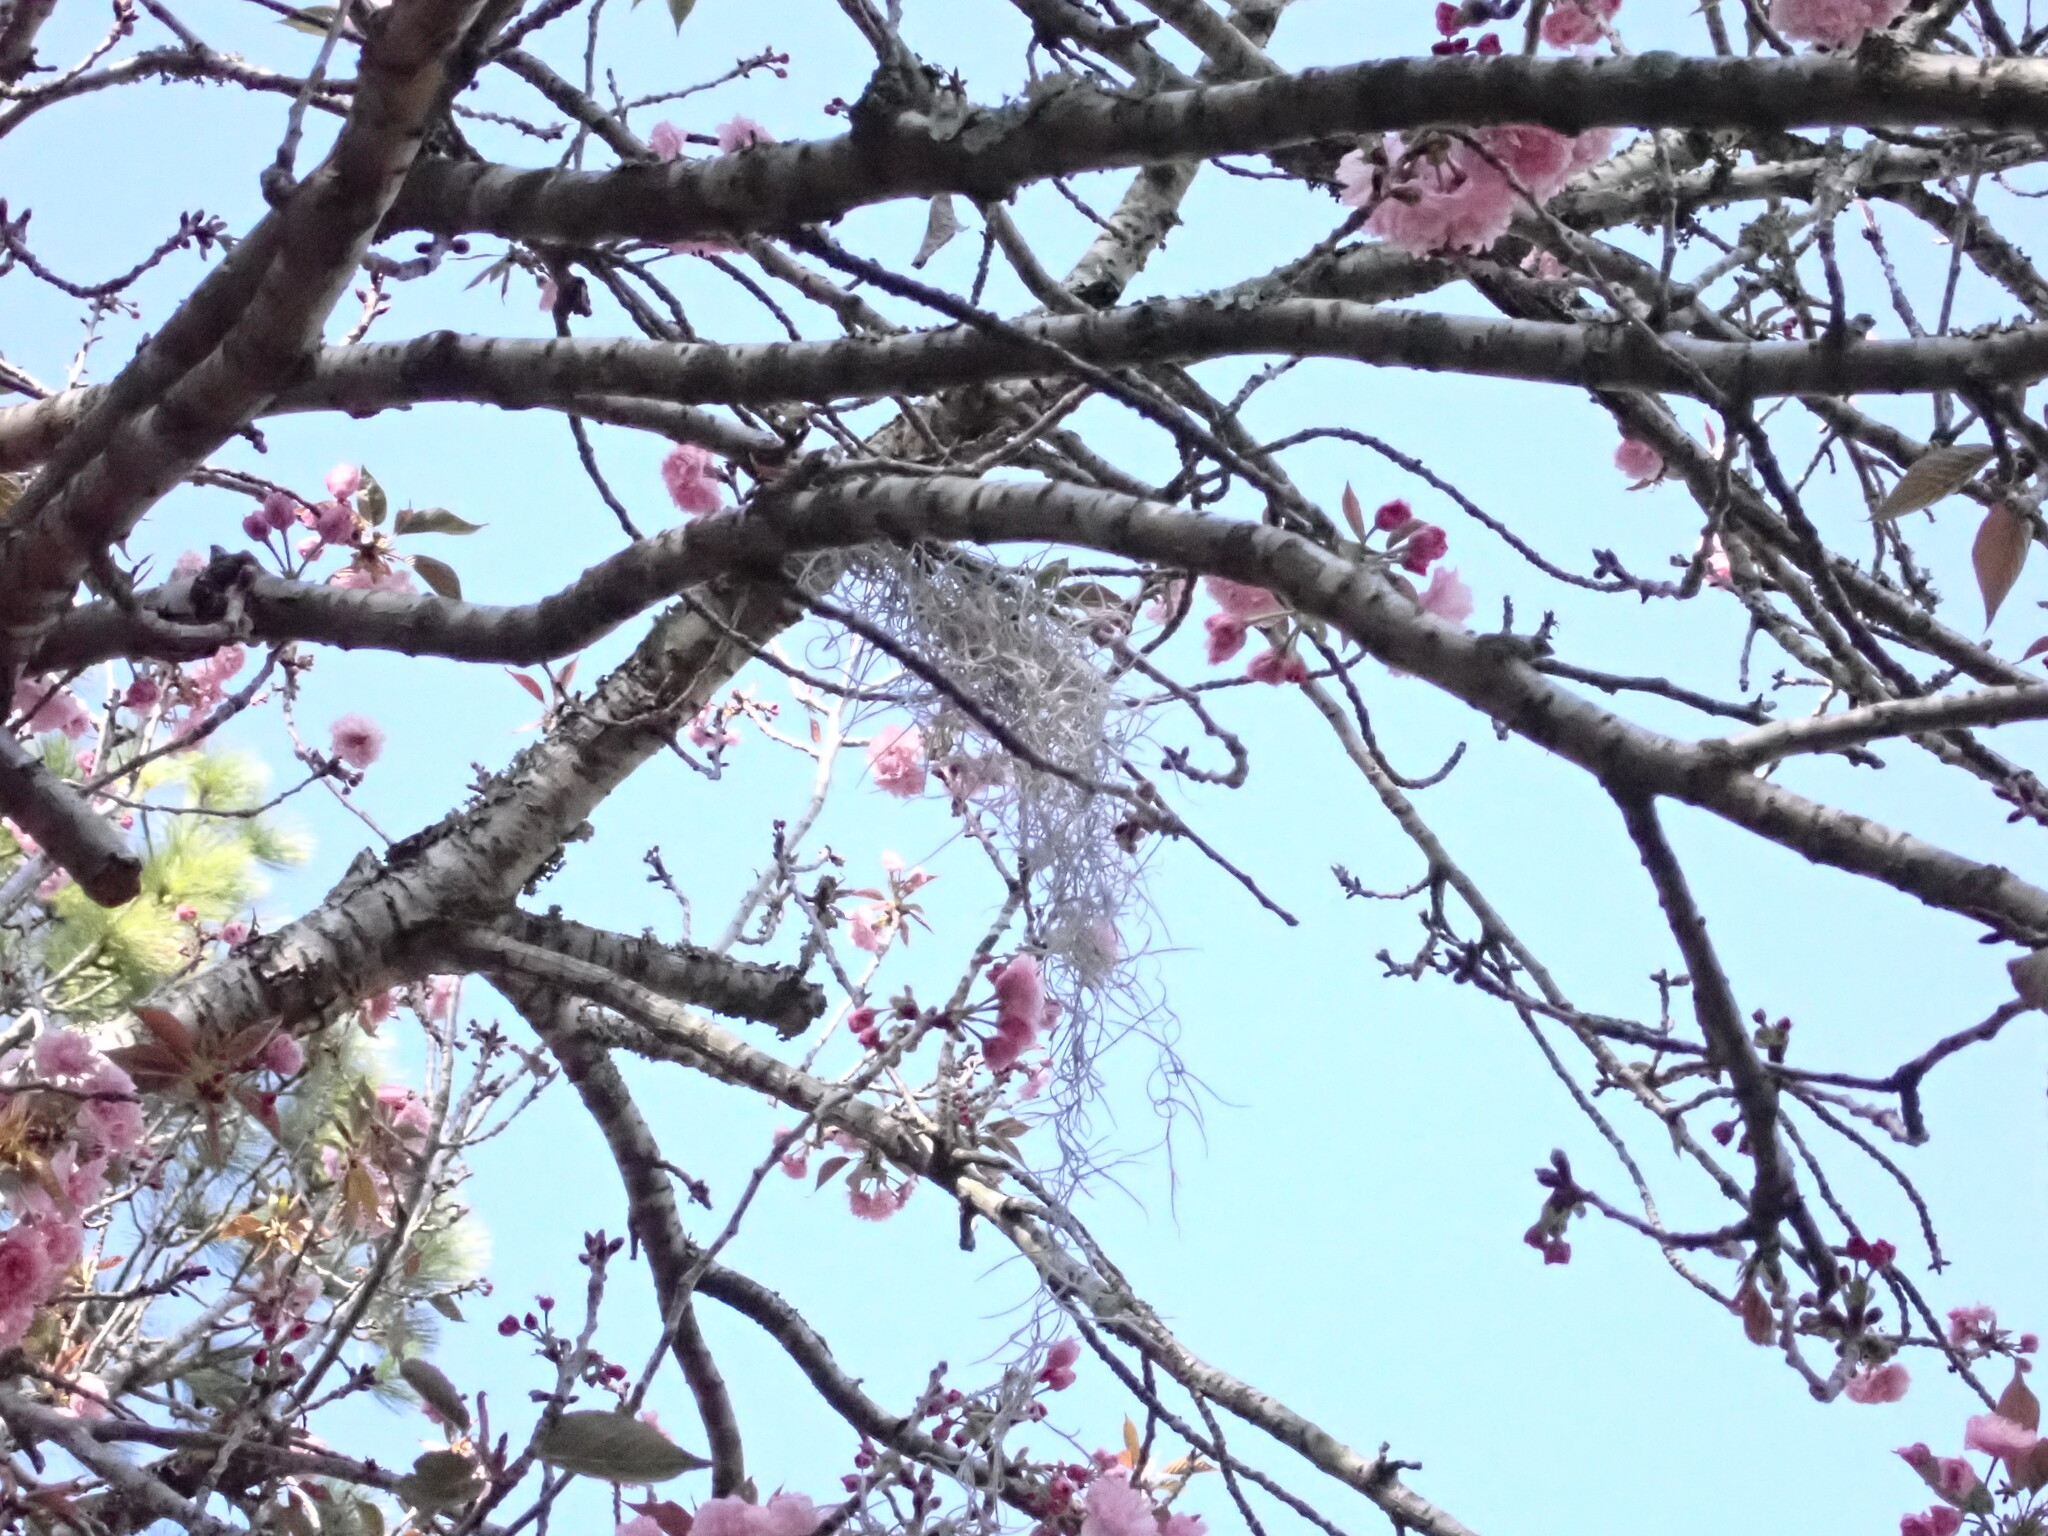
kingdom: Plantae
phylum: Tracheophyta
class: Liliopsida
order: Poales
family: Bromeliaceae
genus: Tillandsia
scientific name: Tillandsia usneoides
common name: Spanish moss
